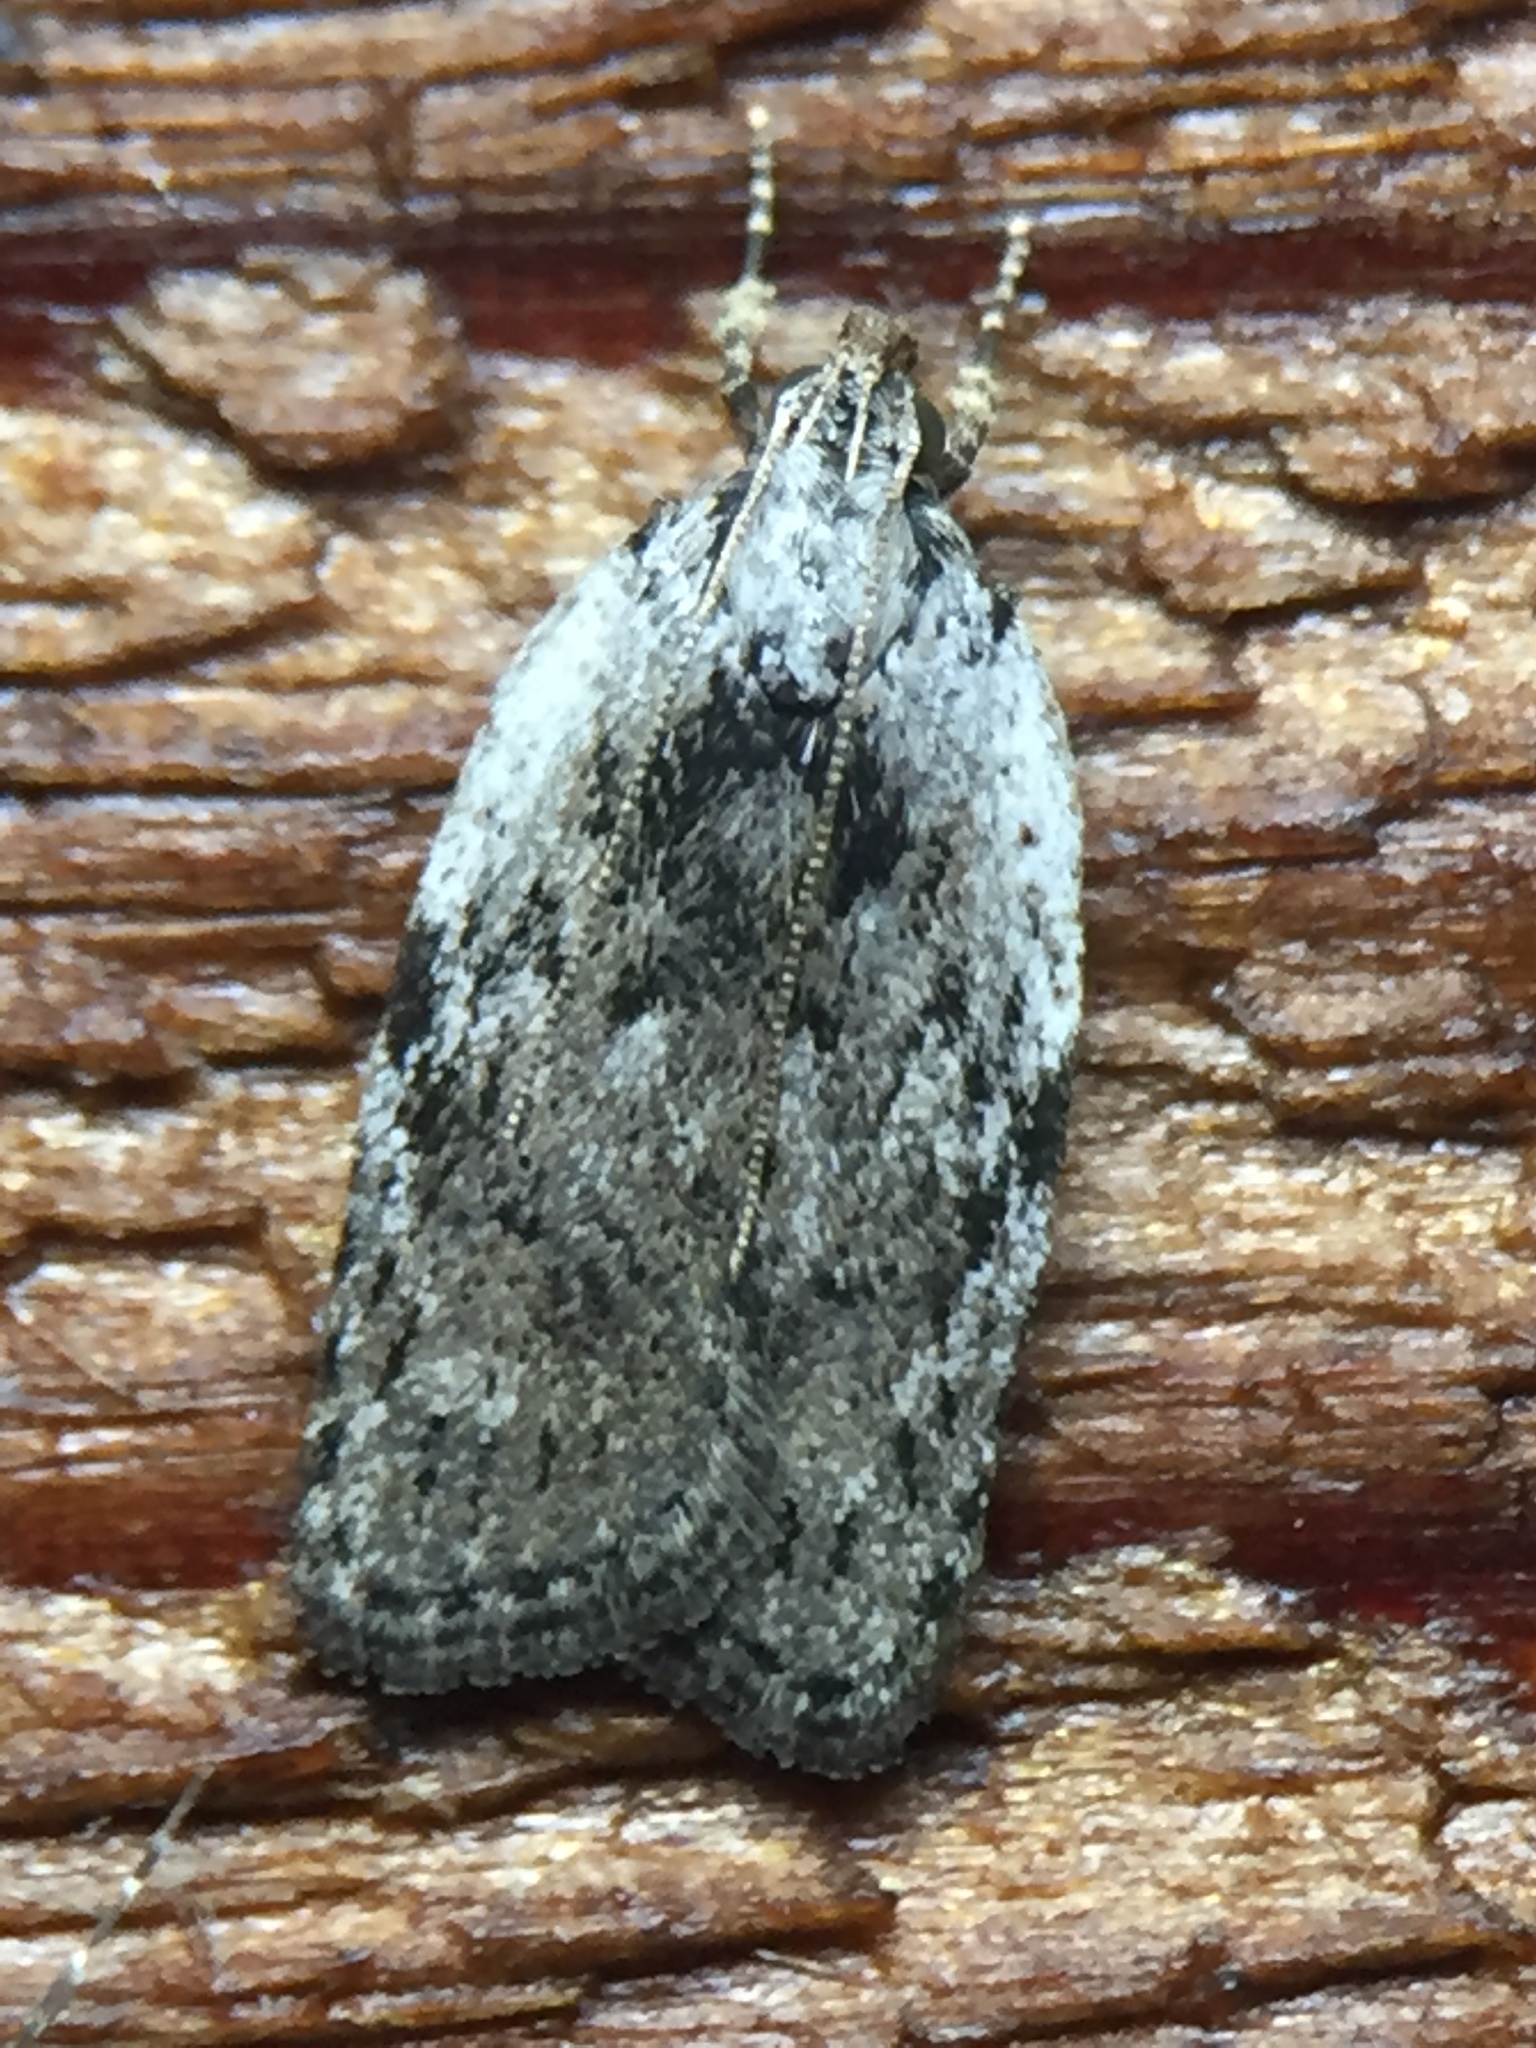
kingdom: Animalia
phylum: Arthropoda
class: Insecta
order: Lepidoptera
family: Depressariidae
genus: Phaeosaces
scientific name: Phaeosaces compsotypa
